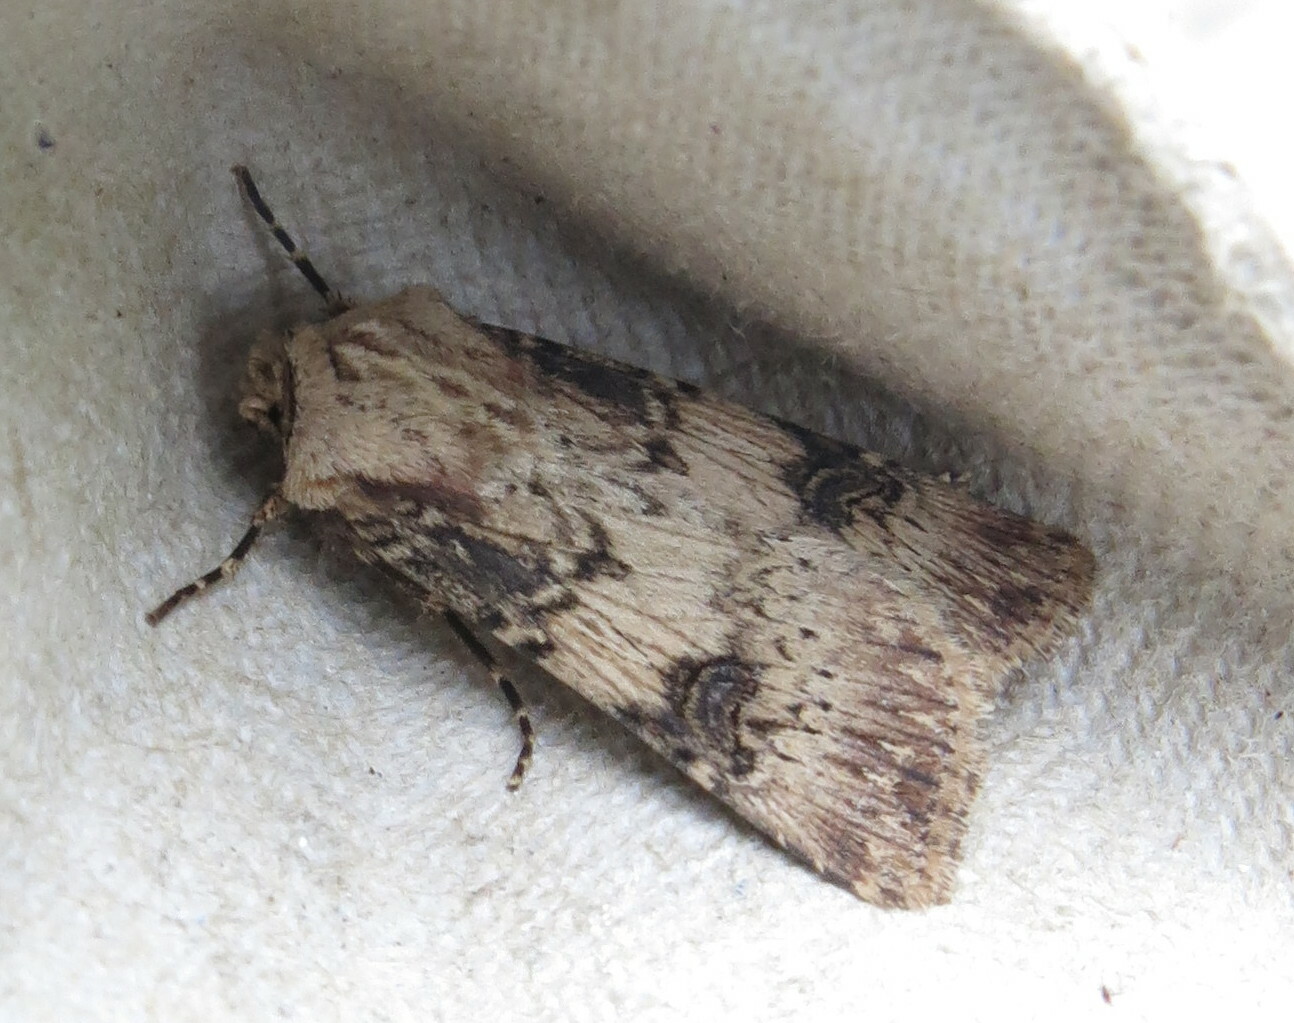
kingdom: Animalia
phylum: Arthropoda
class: Insecta
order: Lepidoptera
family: Noctuidae
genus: Agrotis
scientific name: Agrotis puta
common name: Shuttle-shaped dart
